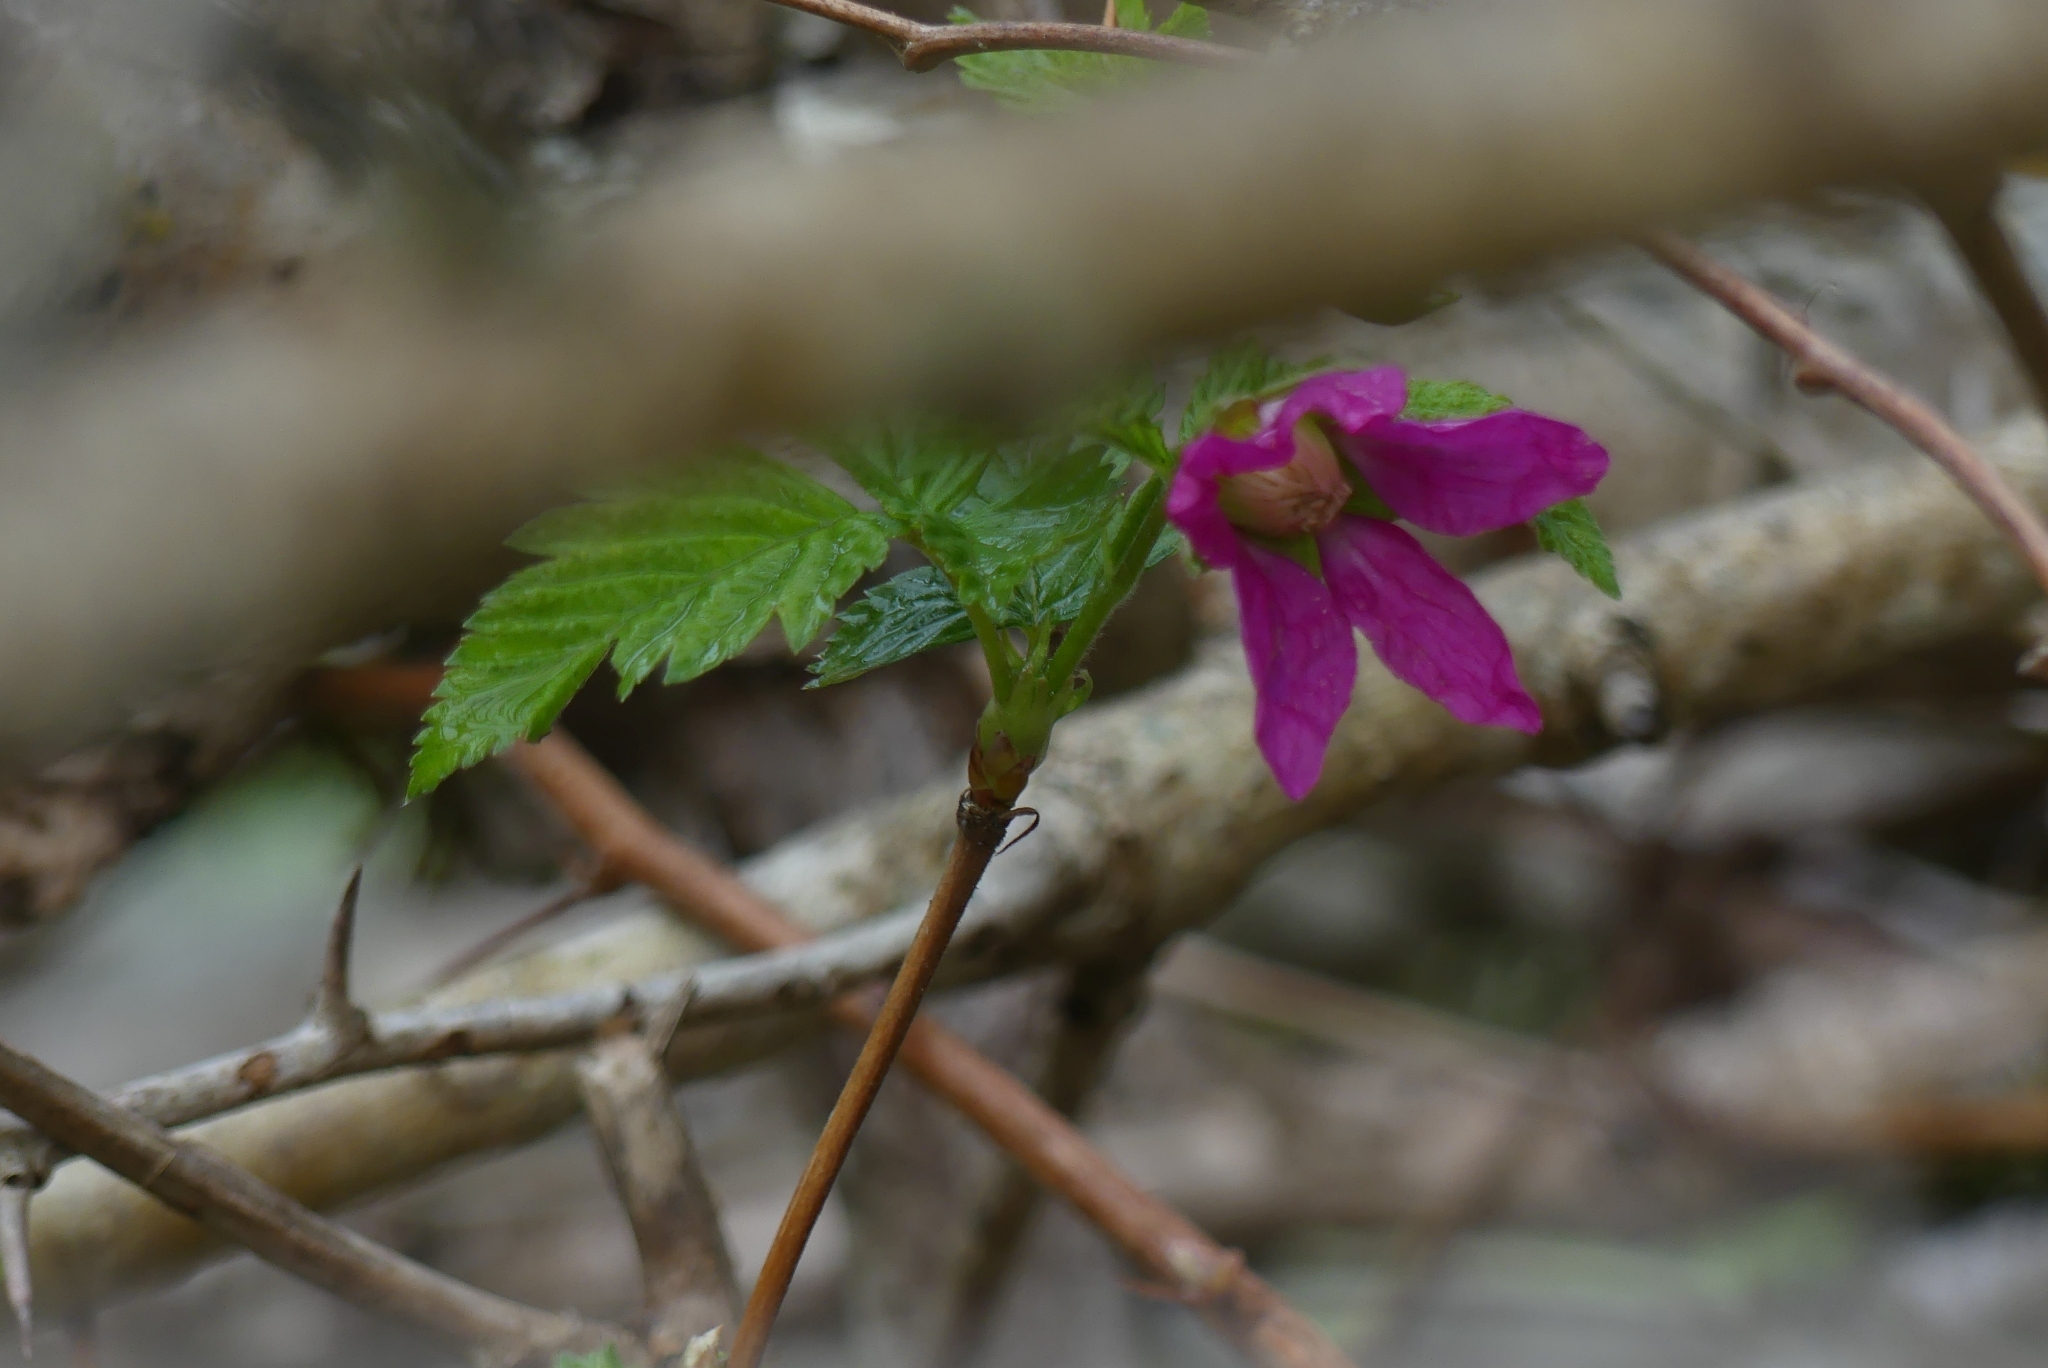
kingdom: Plantae
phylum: Tracheophyta
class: Magnoliopsida
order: Rosales
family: Rosaceae
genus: Rubus
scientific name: Rubus spectabilis
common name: Salmonberry
